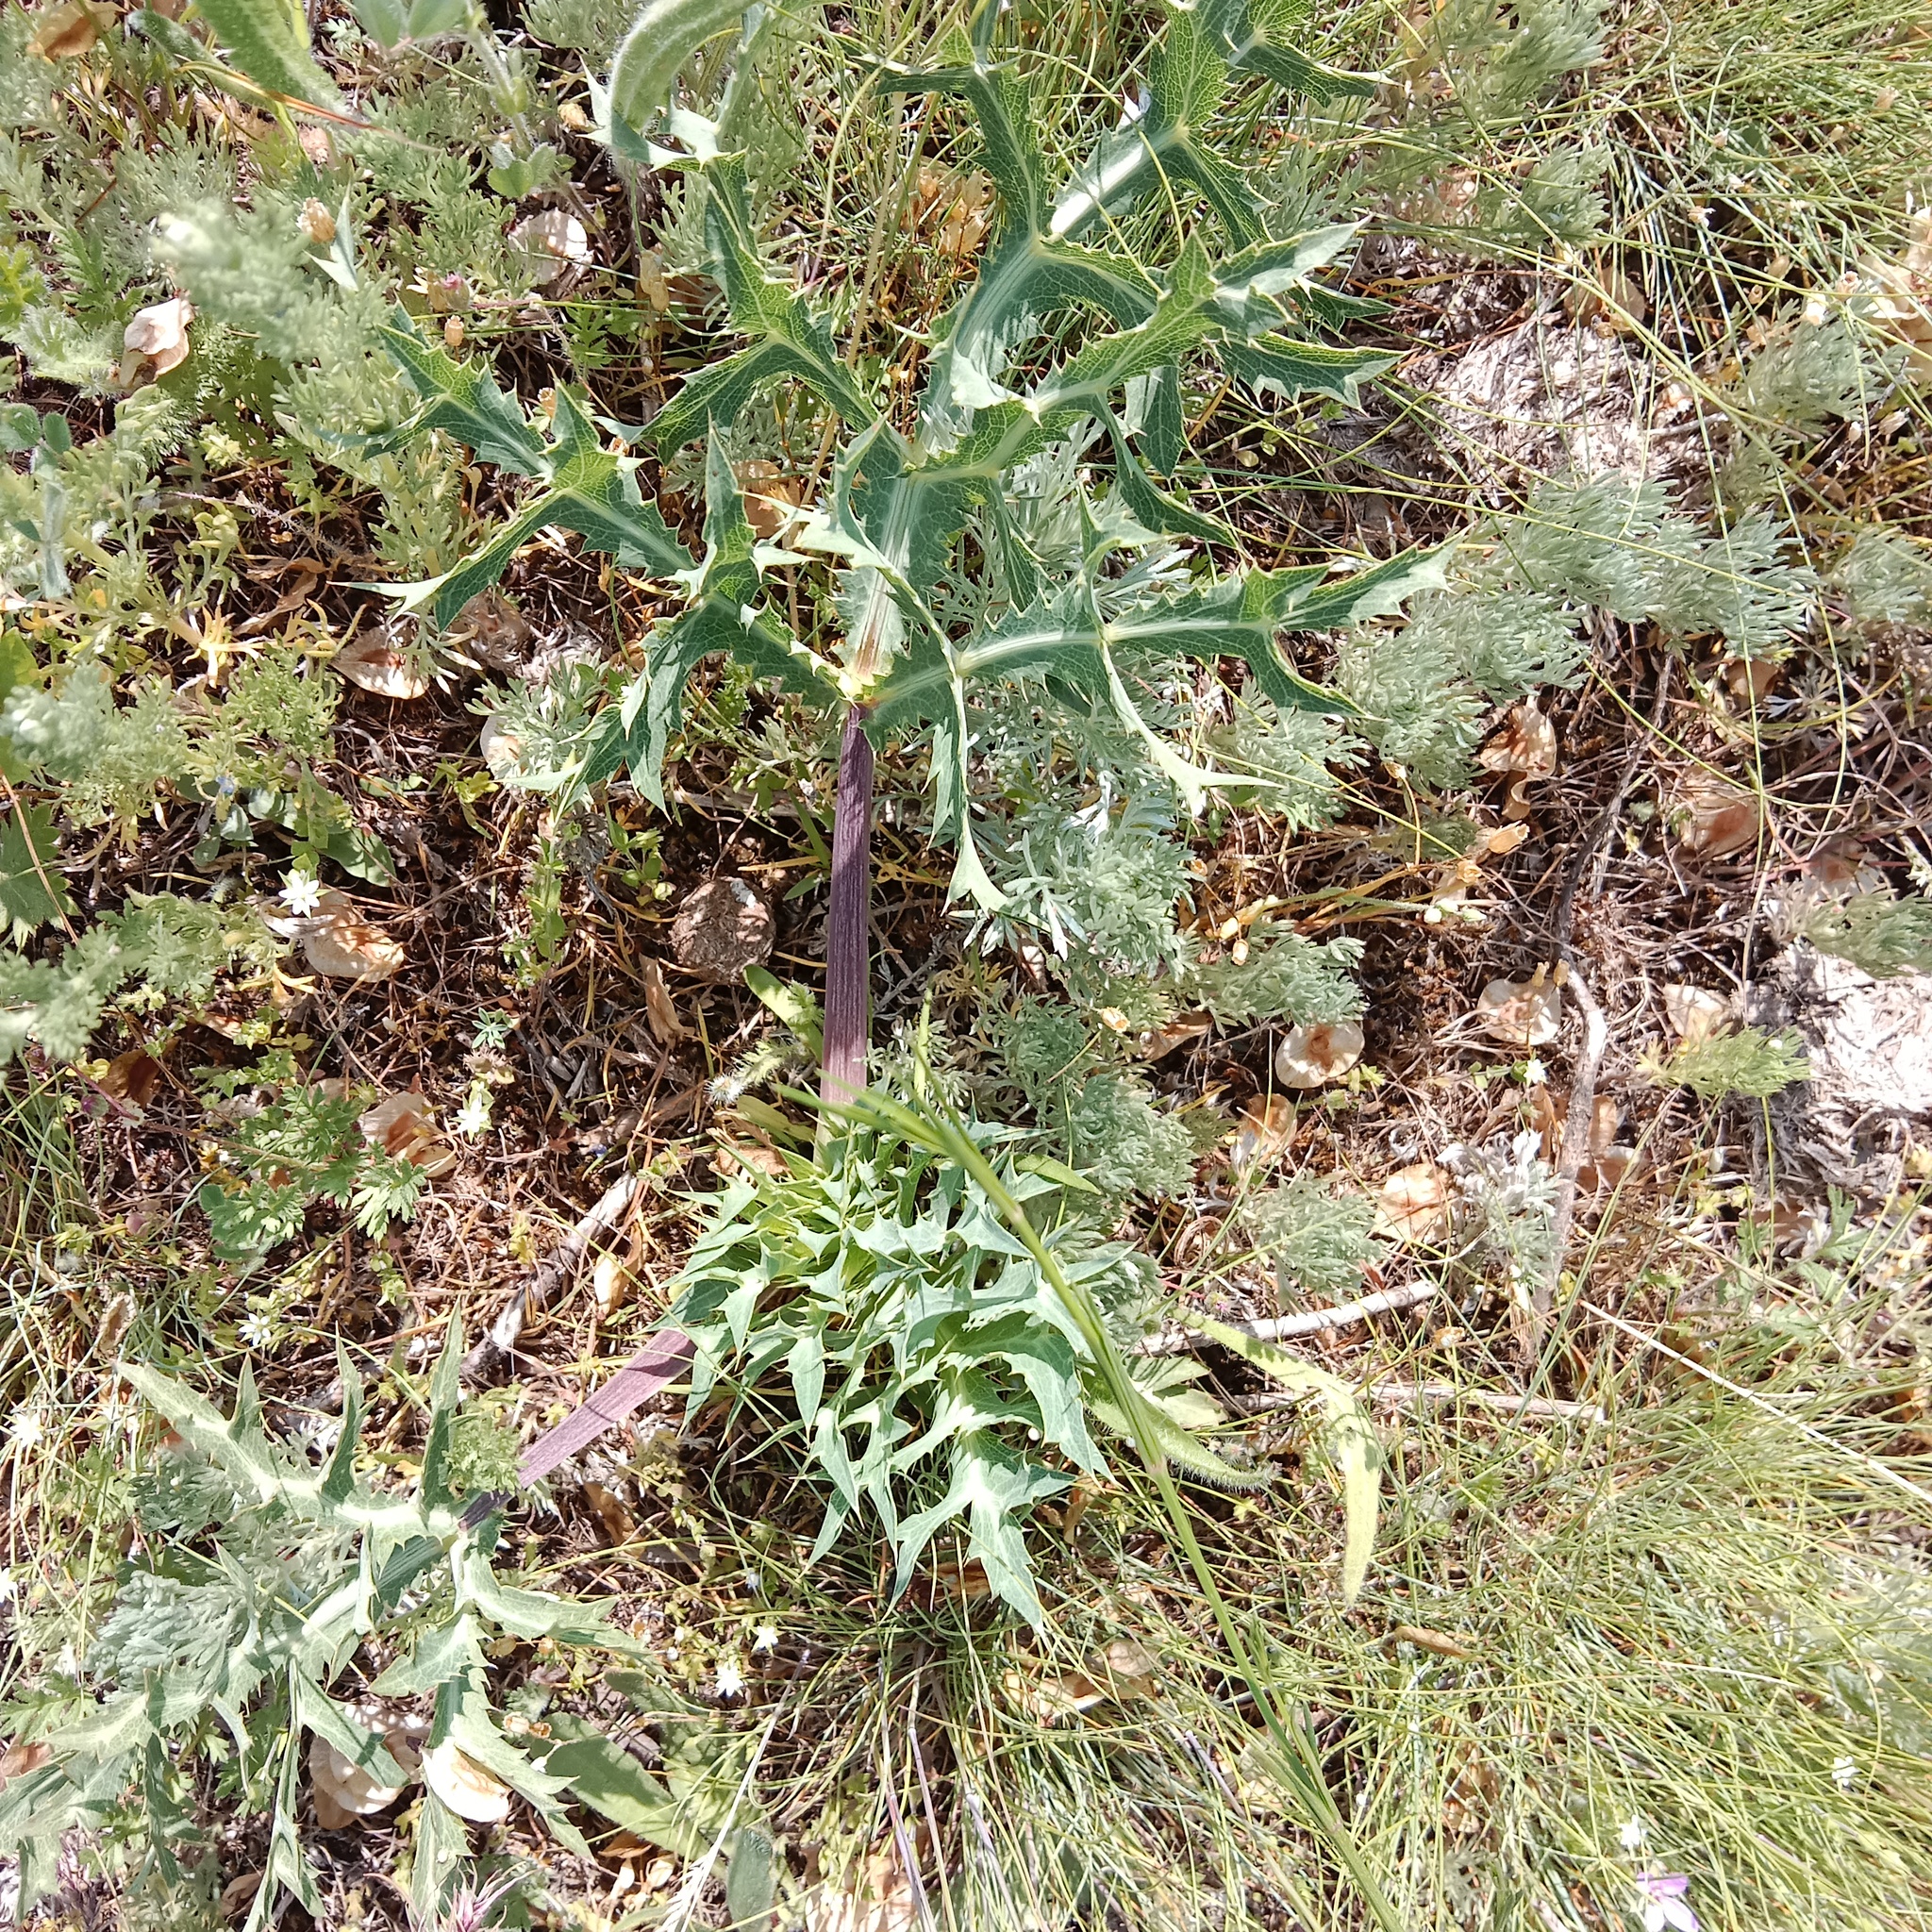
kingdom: Plantae
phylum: Tracheophyta
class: Magnoliopsida
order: Apiales
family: Apiaceae
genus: Eryngium
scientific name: Eryngium campestre
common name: Field eryngo
